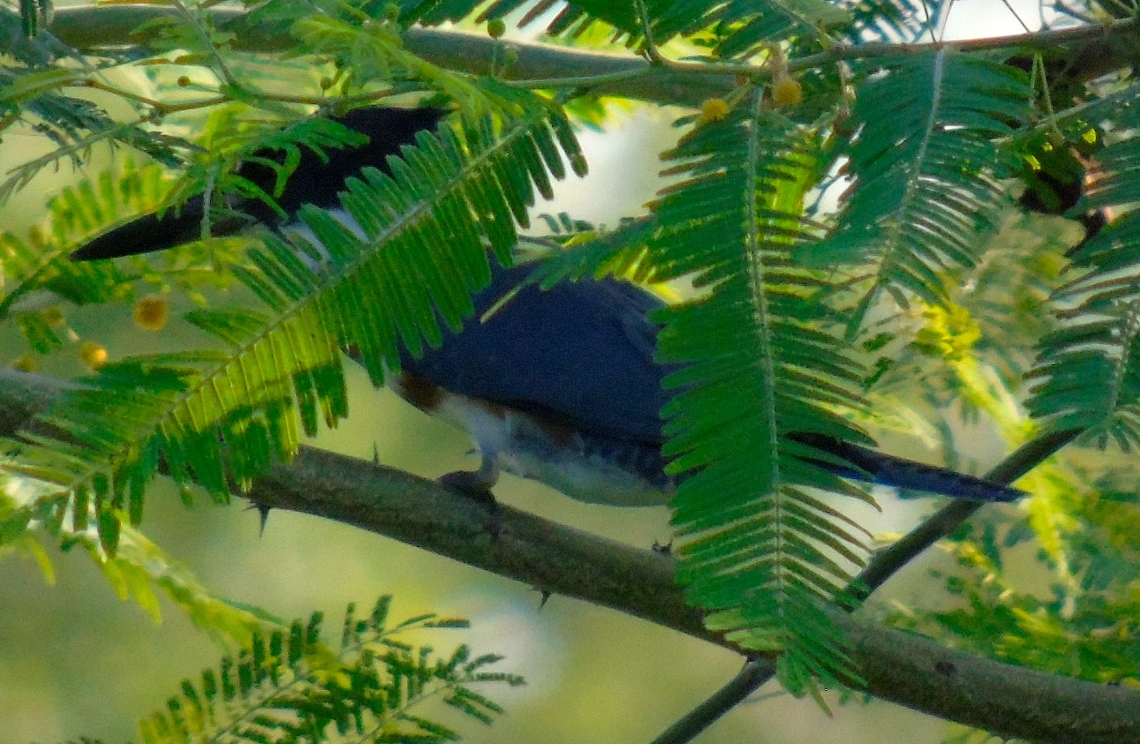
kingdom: Animalia
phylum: Chordata
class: Aves
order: Coraciiformes
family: Alcedinidae
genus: Megaceryle
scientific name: Megaceryle alcyon
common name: Belted kingfisher
